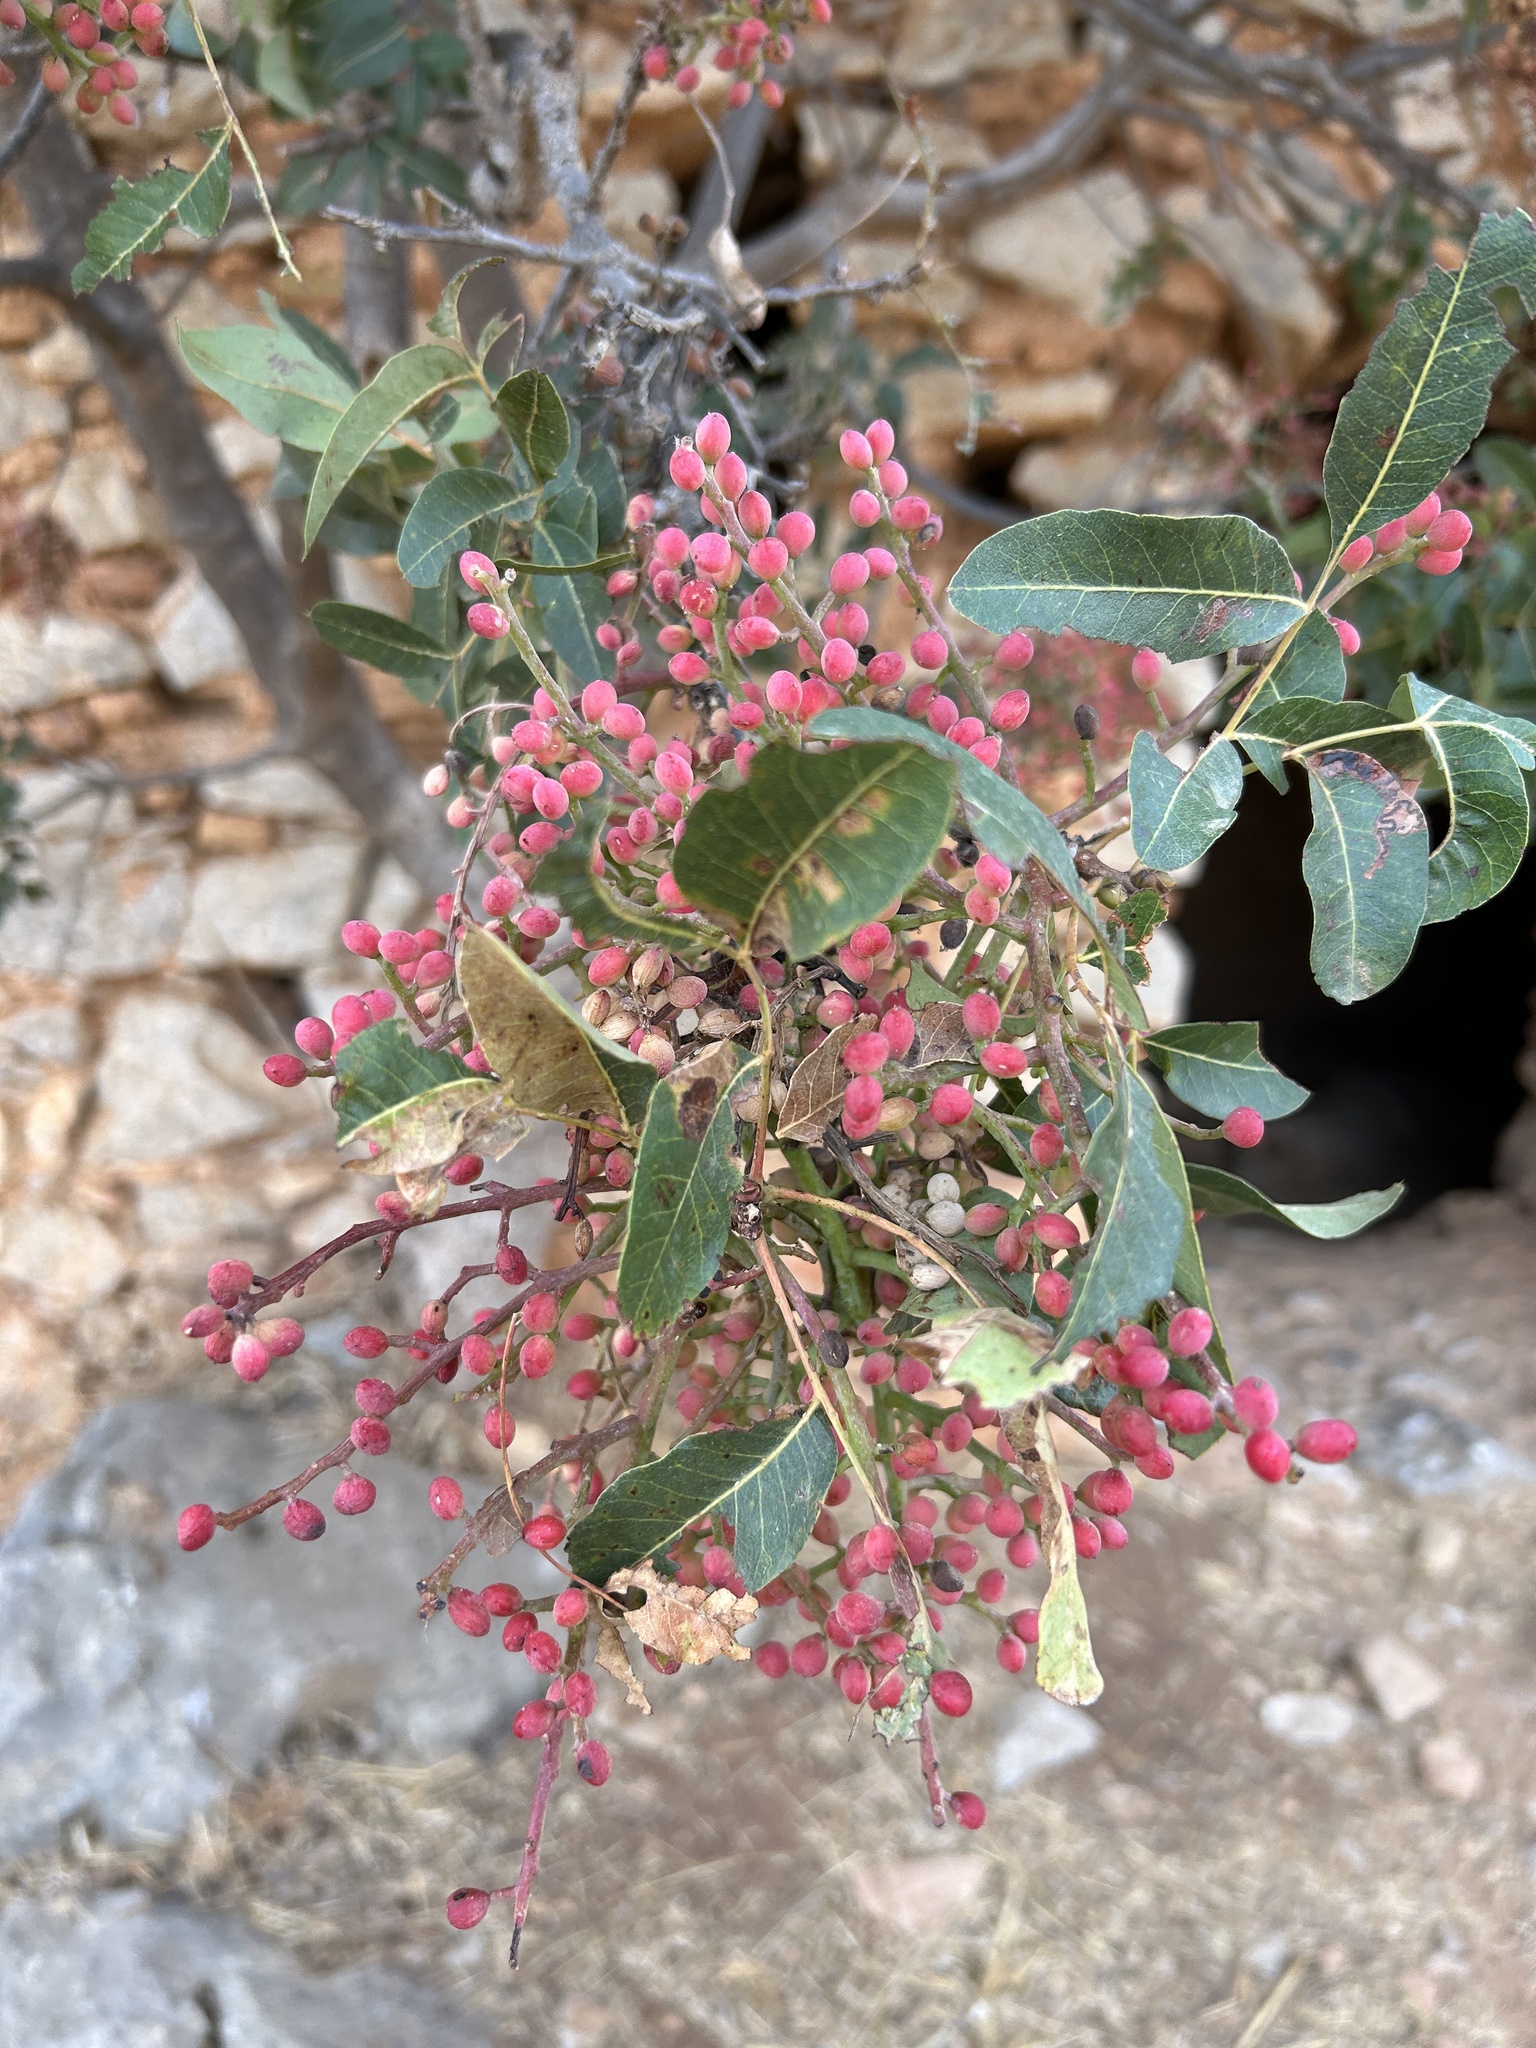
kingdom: Plantae
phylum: Tracheophyta
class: Magnoliopsida
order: Sapindales
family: Anacardiaceae
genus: Pistacia
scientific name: Pistacia terebinthus
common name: Terebinth
